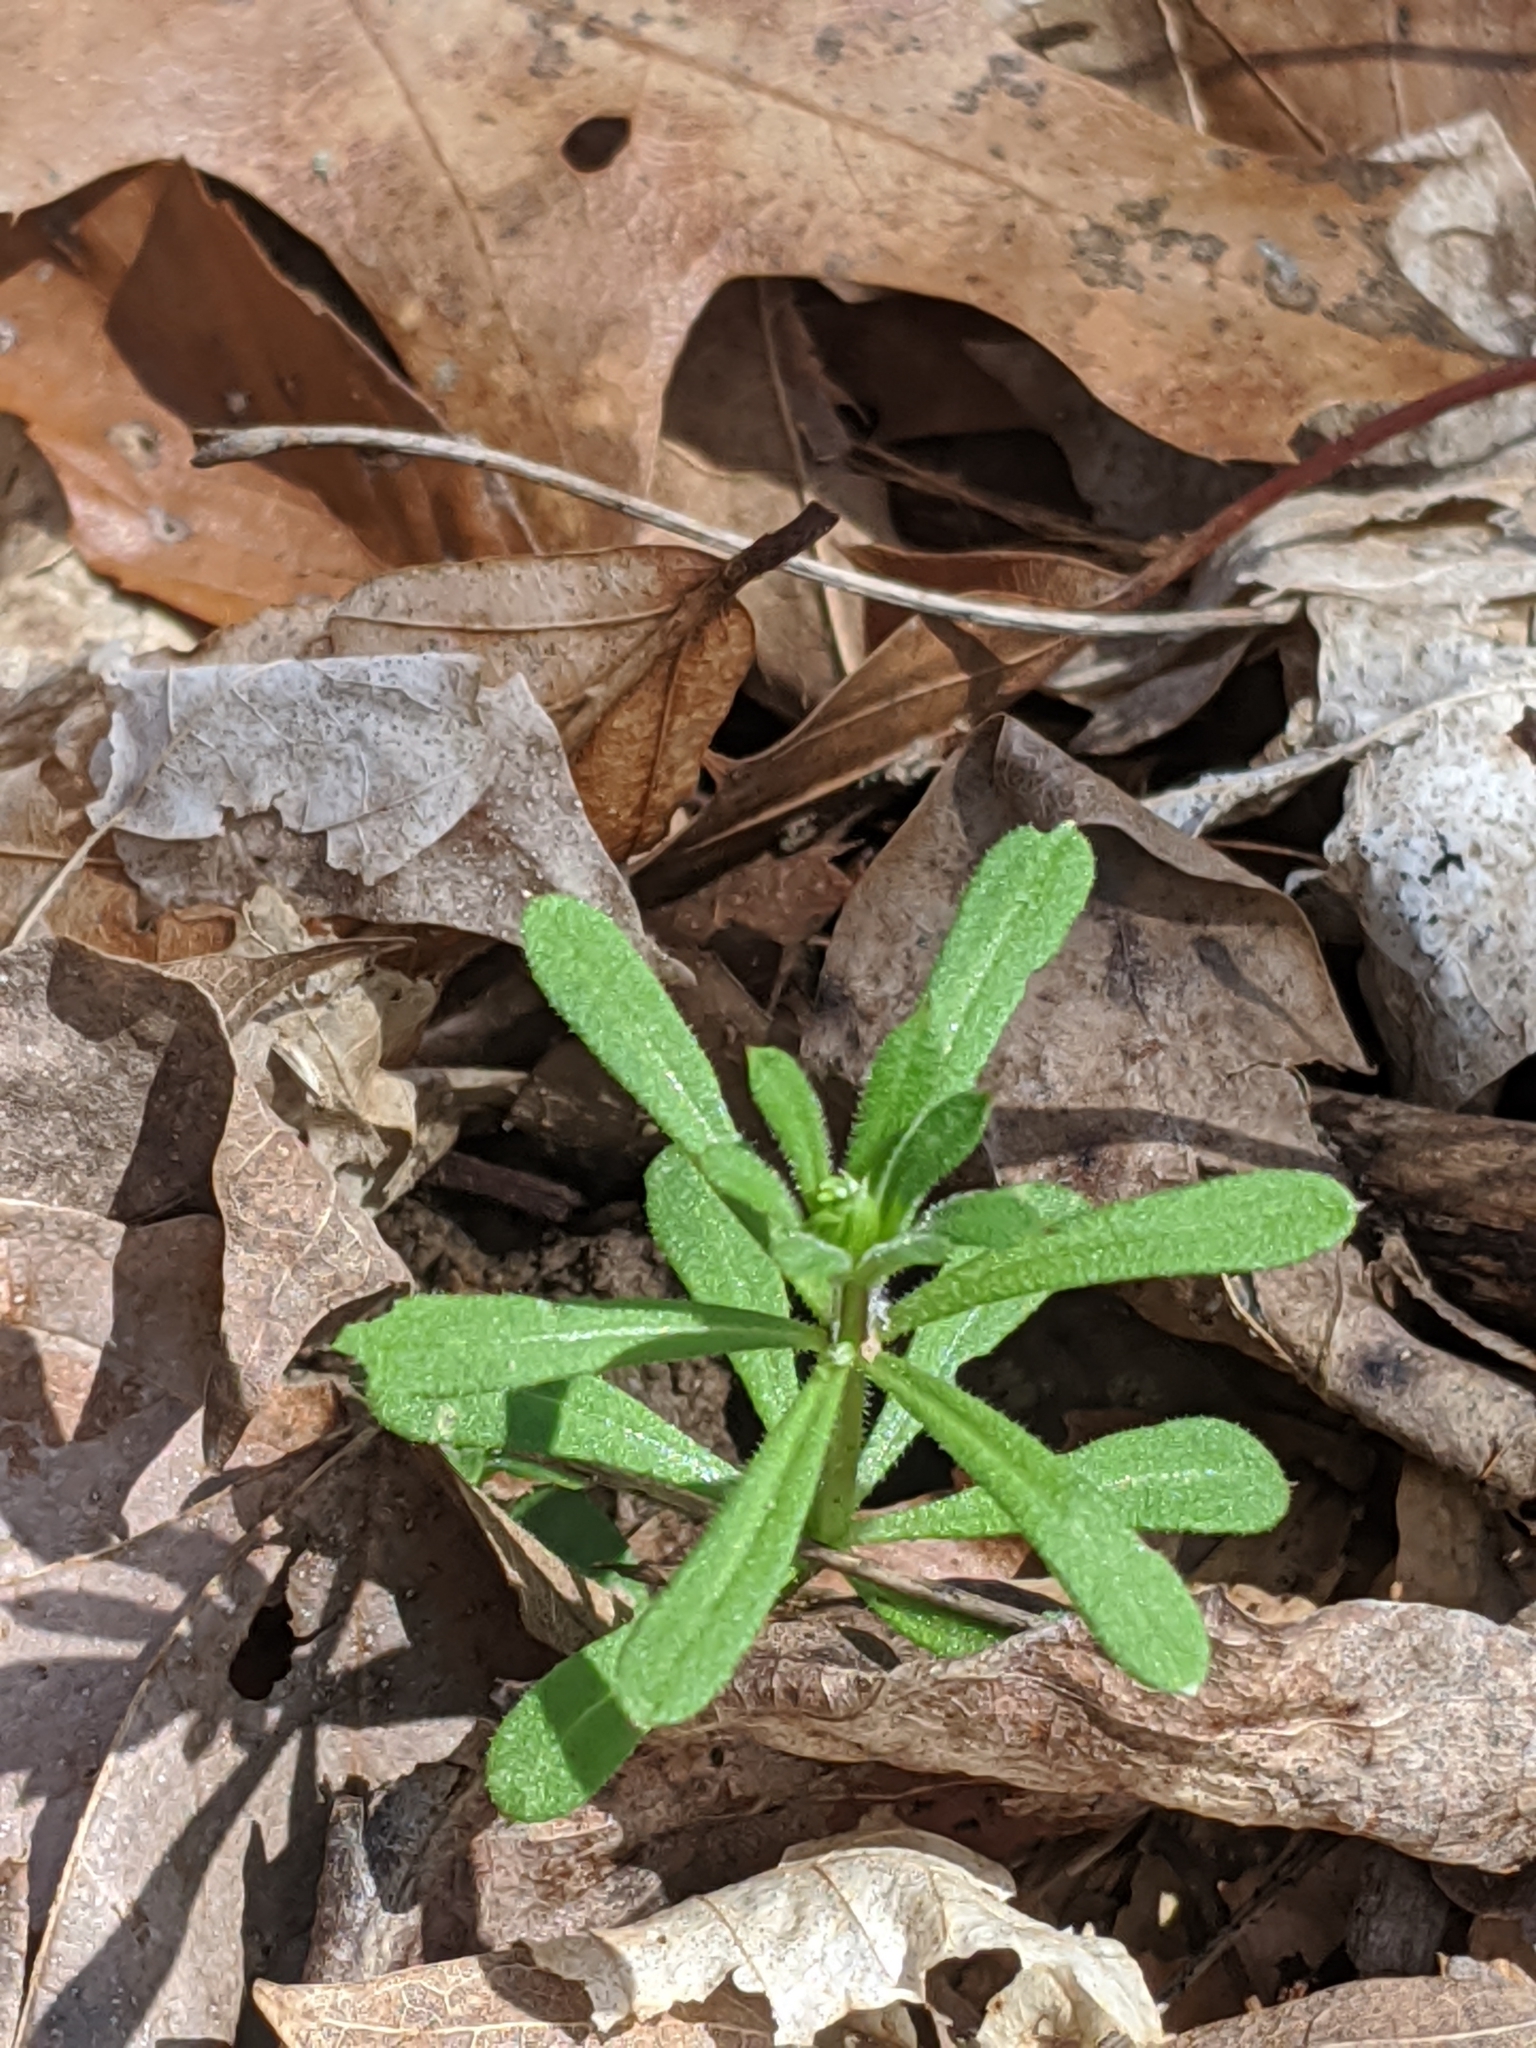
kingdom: Plantae
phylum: Tracheophyta
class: Magnoliopsida
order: Gentianales
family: Rubiaceae
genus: Galium
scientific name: Galium aparine
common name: Cleavers
